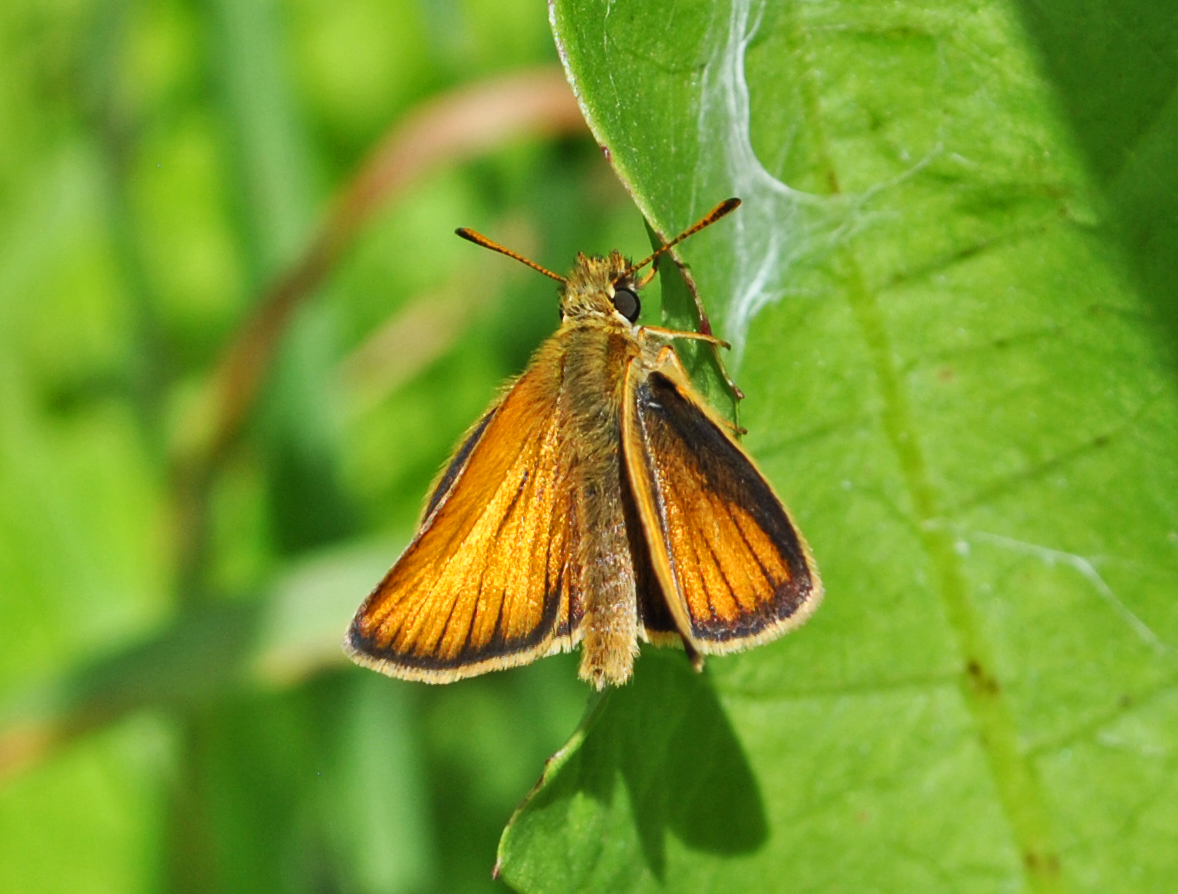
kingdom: Animalia
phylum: Arthropoda
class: Insecta
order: Lepidoptera
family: Hesperiidae
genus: Thymelicus
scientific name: Thymelicus lineola
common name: Essex skipper
